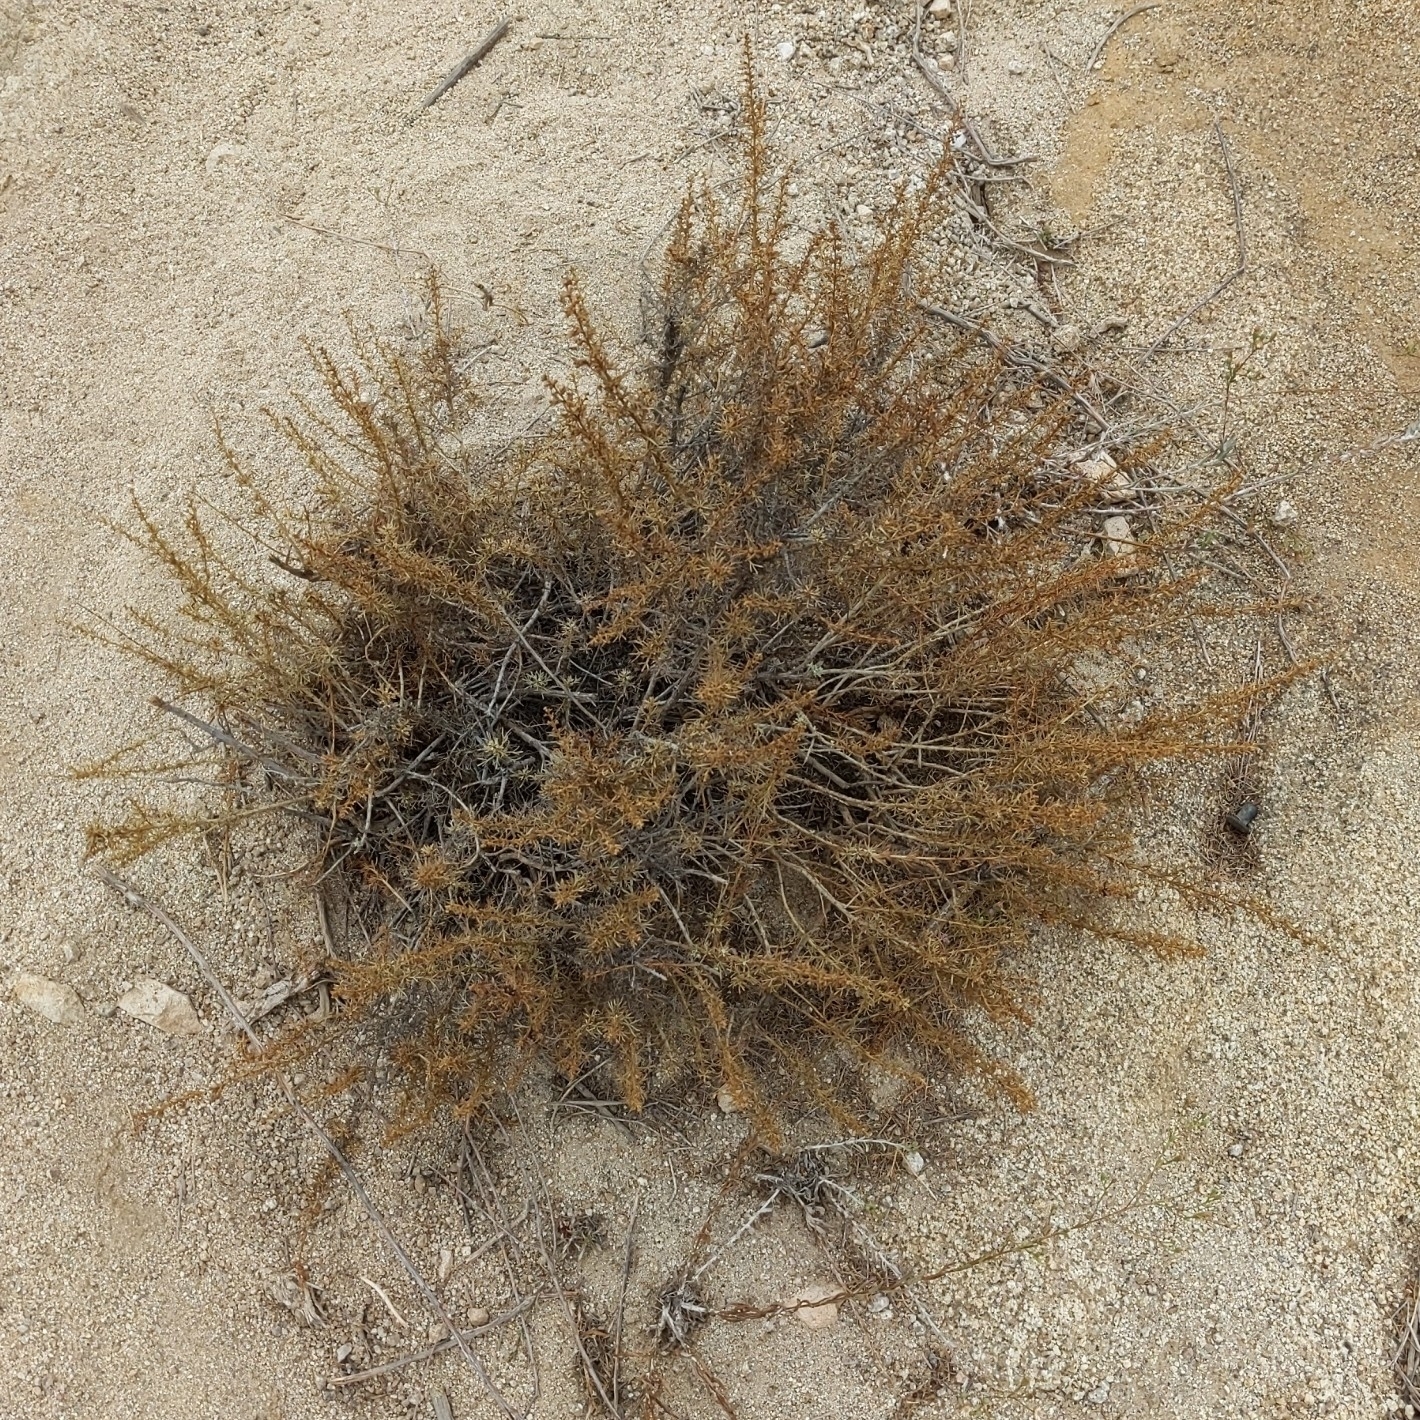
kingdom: Plantae
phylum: Tracheophyta
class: Magnoliopsida
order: Asterales
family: Asteraceae
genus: Artemisia
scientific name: Artemisia californica
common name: California sagebrush
